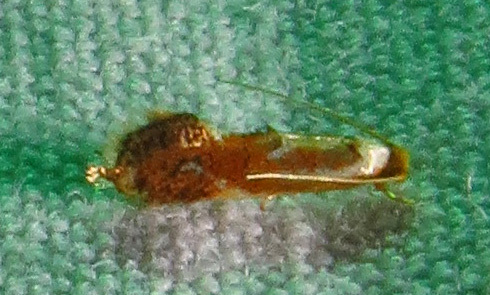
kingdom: Animalia
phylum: Arthropoda
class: Insecta
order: Lepidoptera
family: Lyonetiidae
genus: Philonome
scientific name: Philonome clemensella
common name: Clemen's philonome moth
